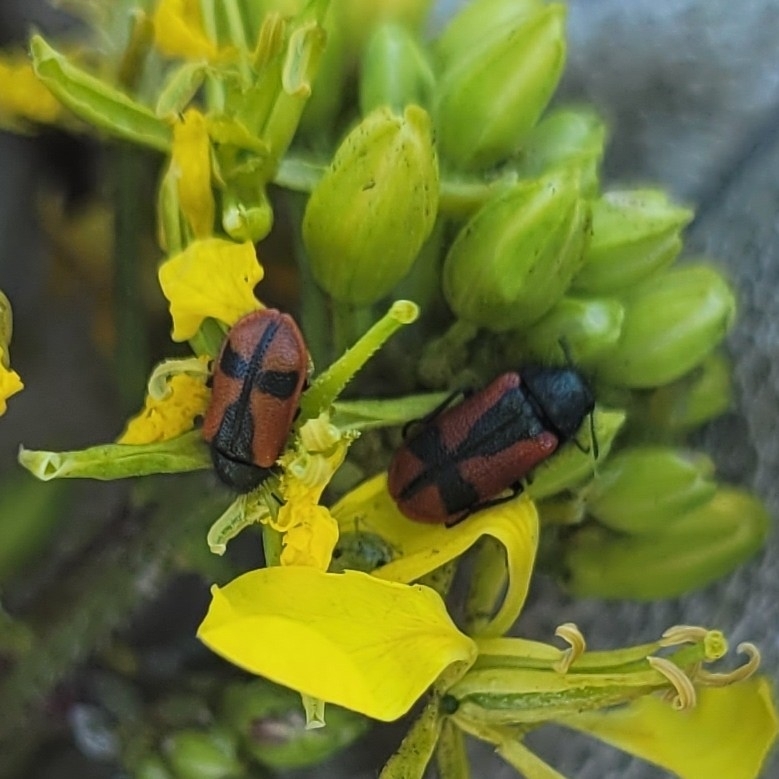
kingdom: Animalia
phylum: Arthropoda
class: Insecta
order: Coleoptera
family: Melyridae
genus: Arthrobrachus
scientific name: Arthrobrachus nigromaculatus
